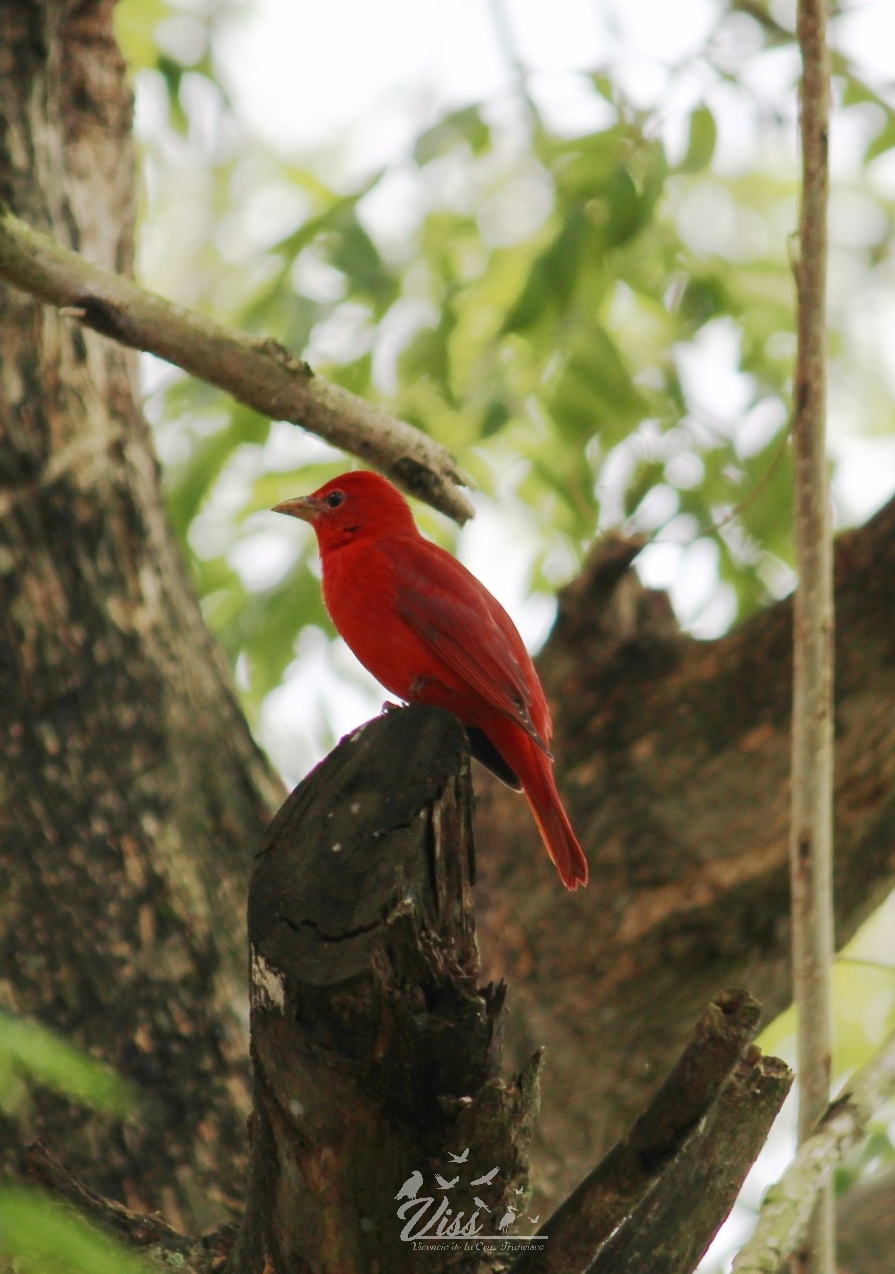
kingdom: Animalia
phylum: Chordata
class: Aves
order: Passeriformes
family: Cardinalidae
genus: Piranga
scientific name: Piranga rubra
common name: Summer tanager
